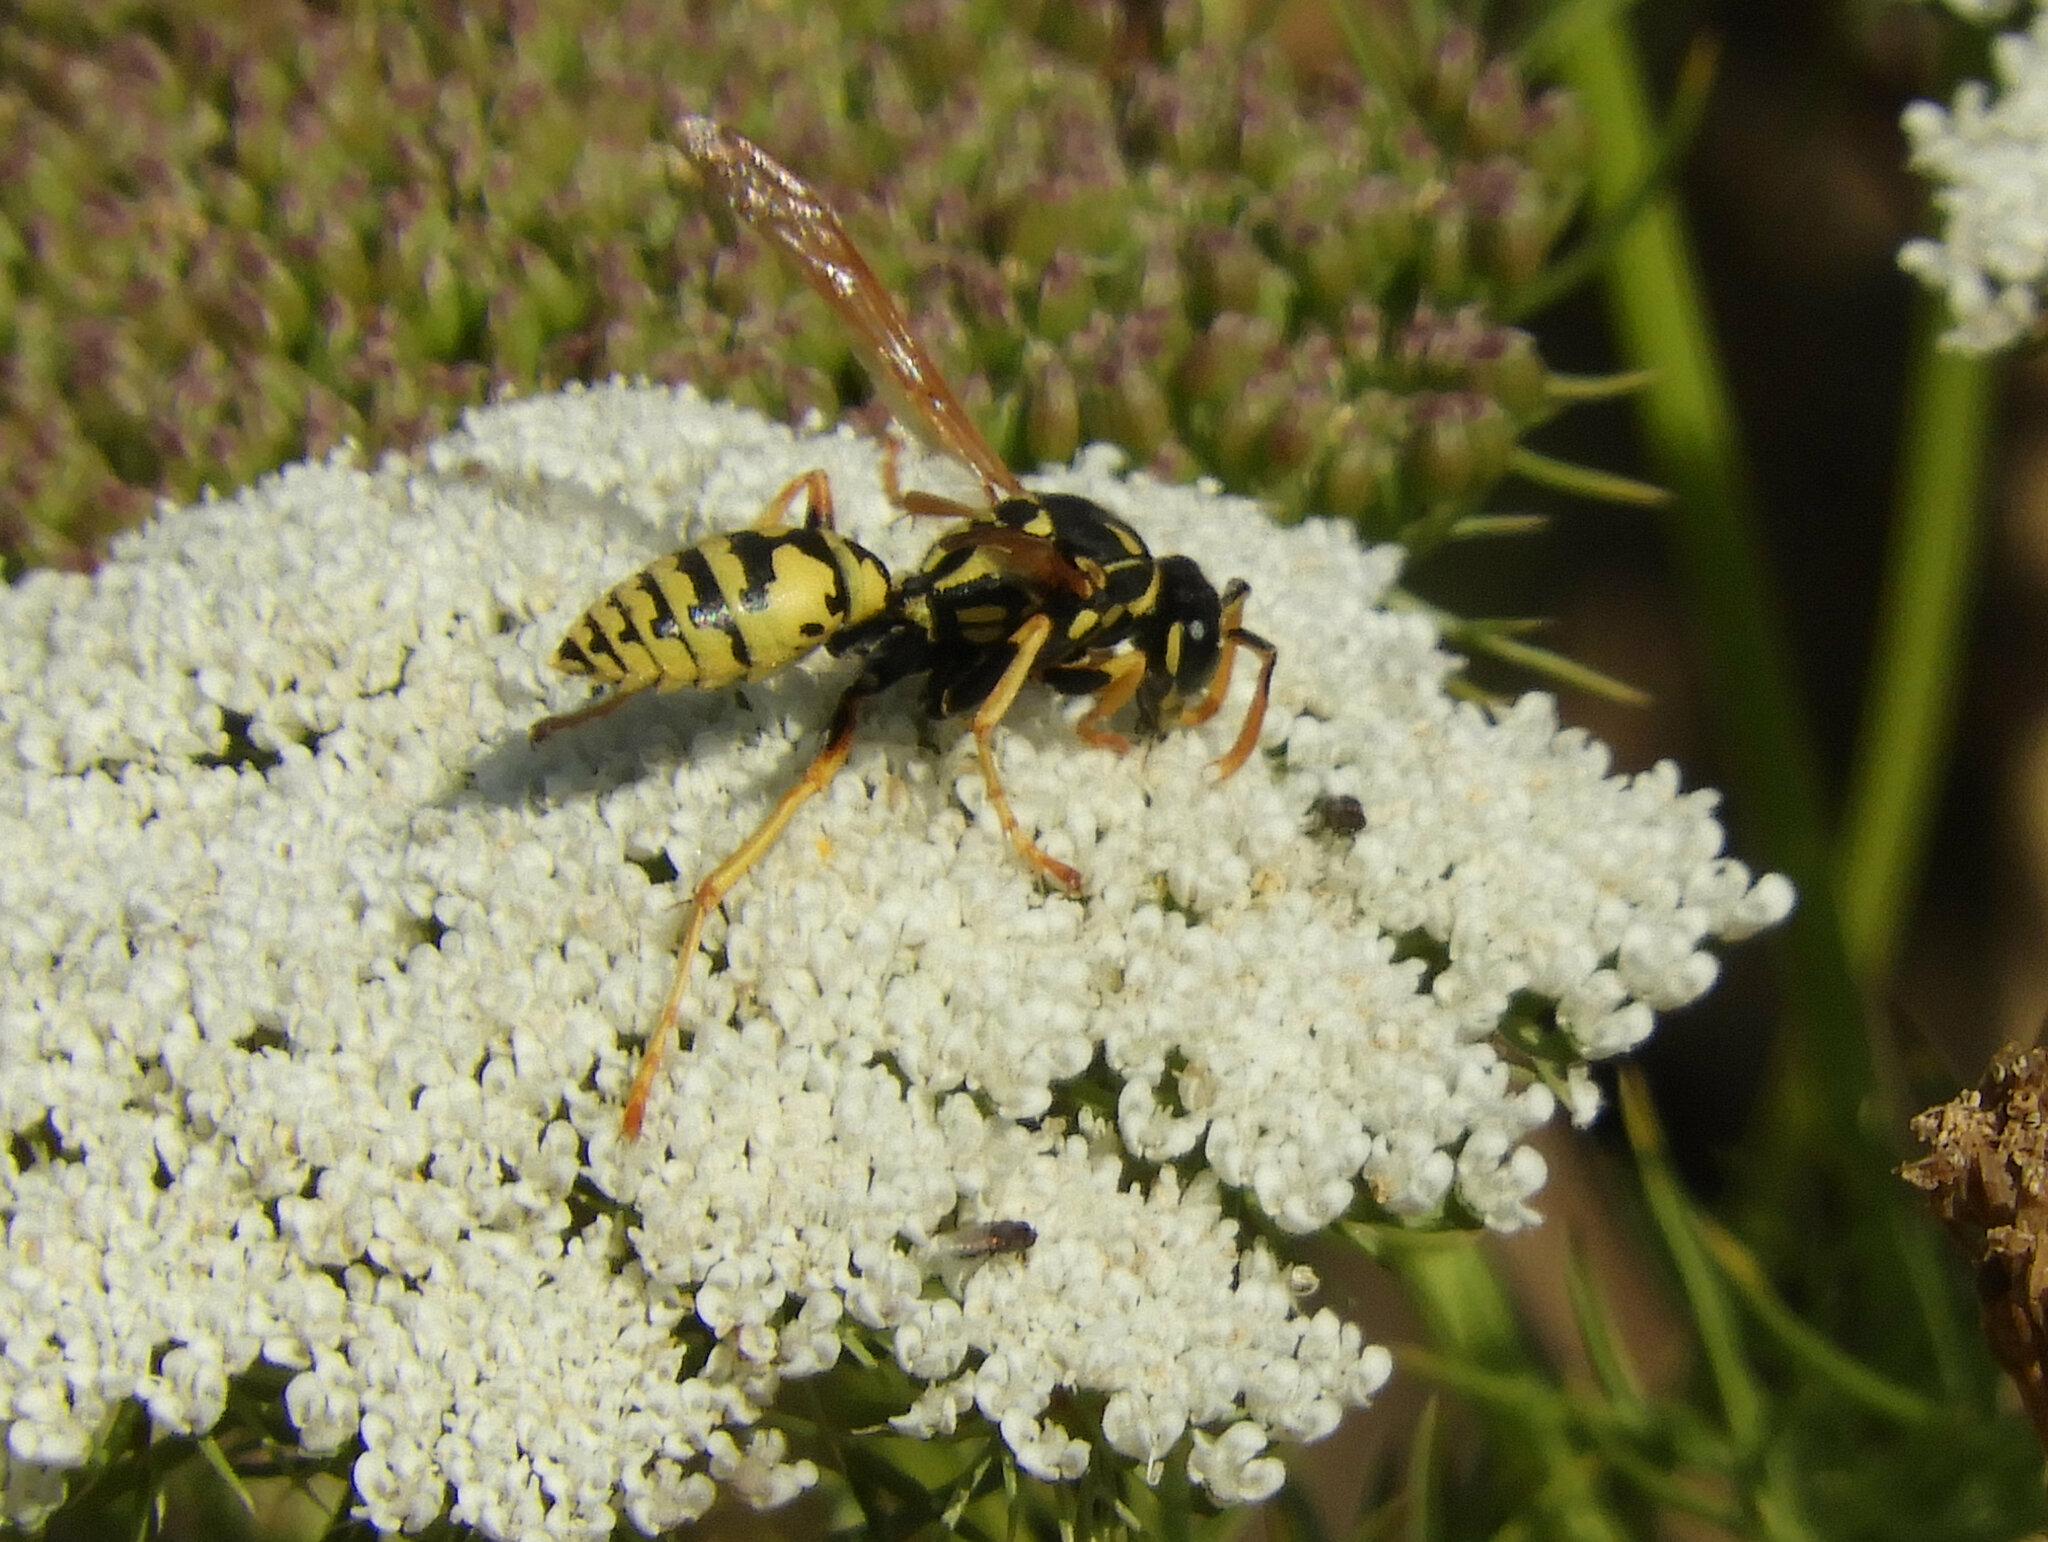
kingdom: Animalia
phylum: Arthropoda
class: Insecta
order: Hymenoptera
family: Eumenidae
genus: Polistes
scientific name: Polistes dominula
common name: Paper wasp
